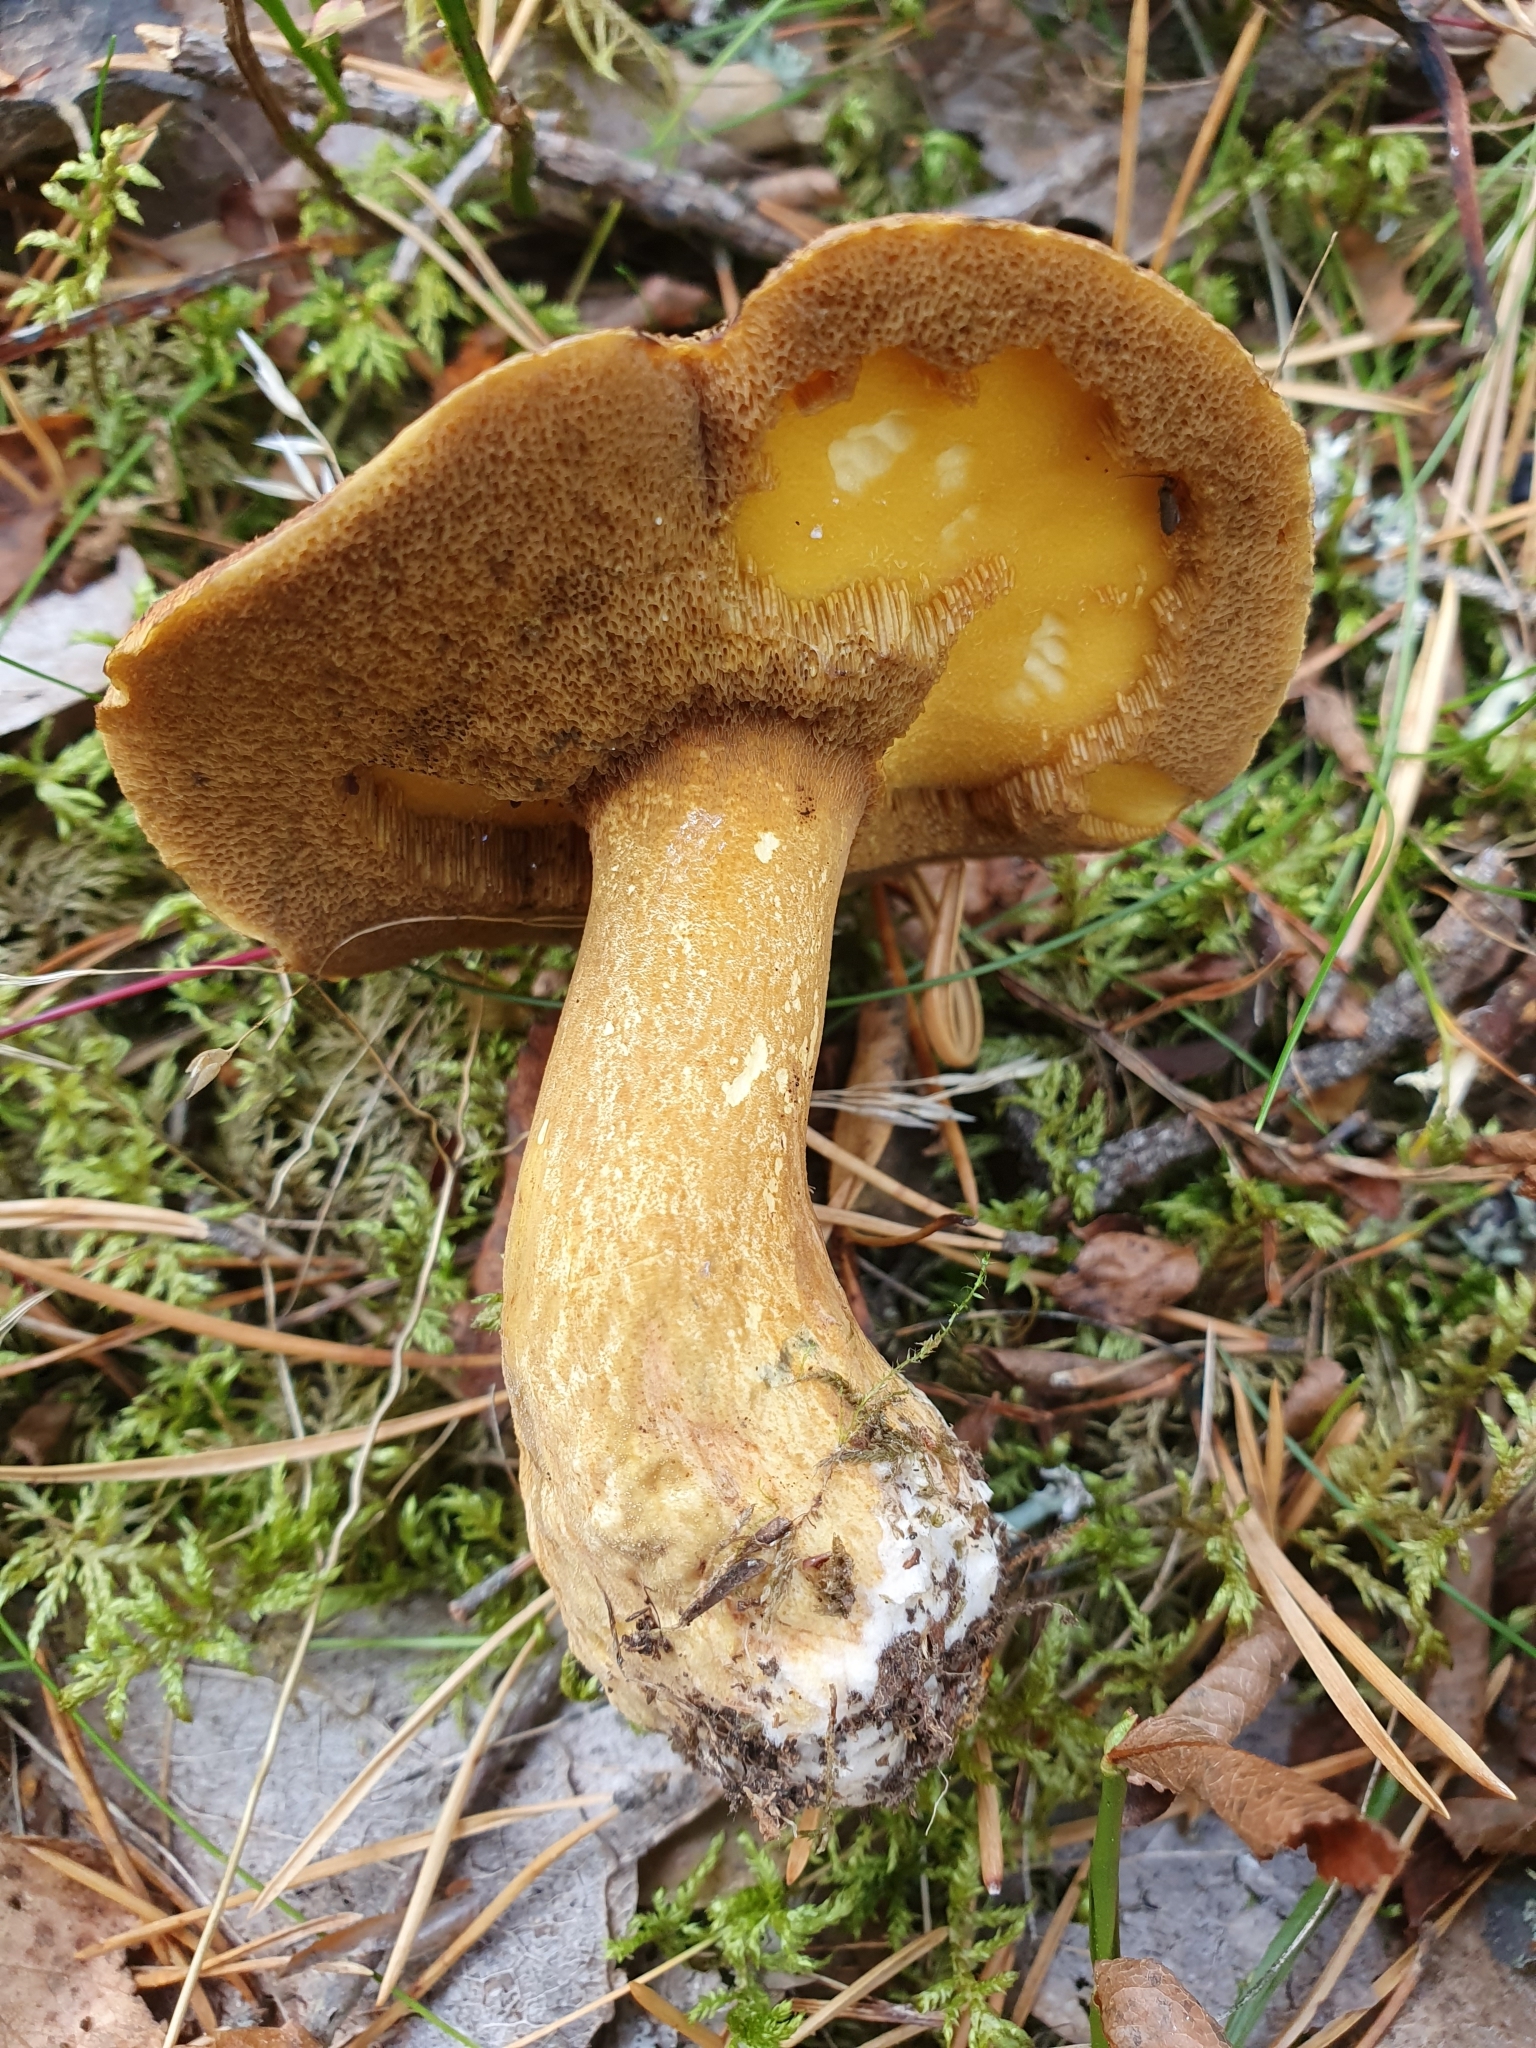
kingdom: Fungi
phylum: Basidiomycota
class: Agaricomycetes
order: Boletales
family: Suillaceae
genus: Suillus
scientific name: Suillus variegatus
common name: Velvet bolete
